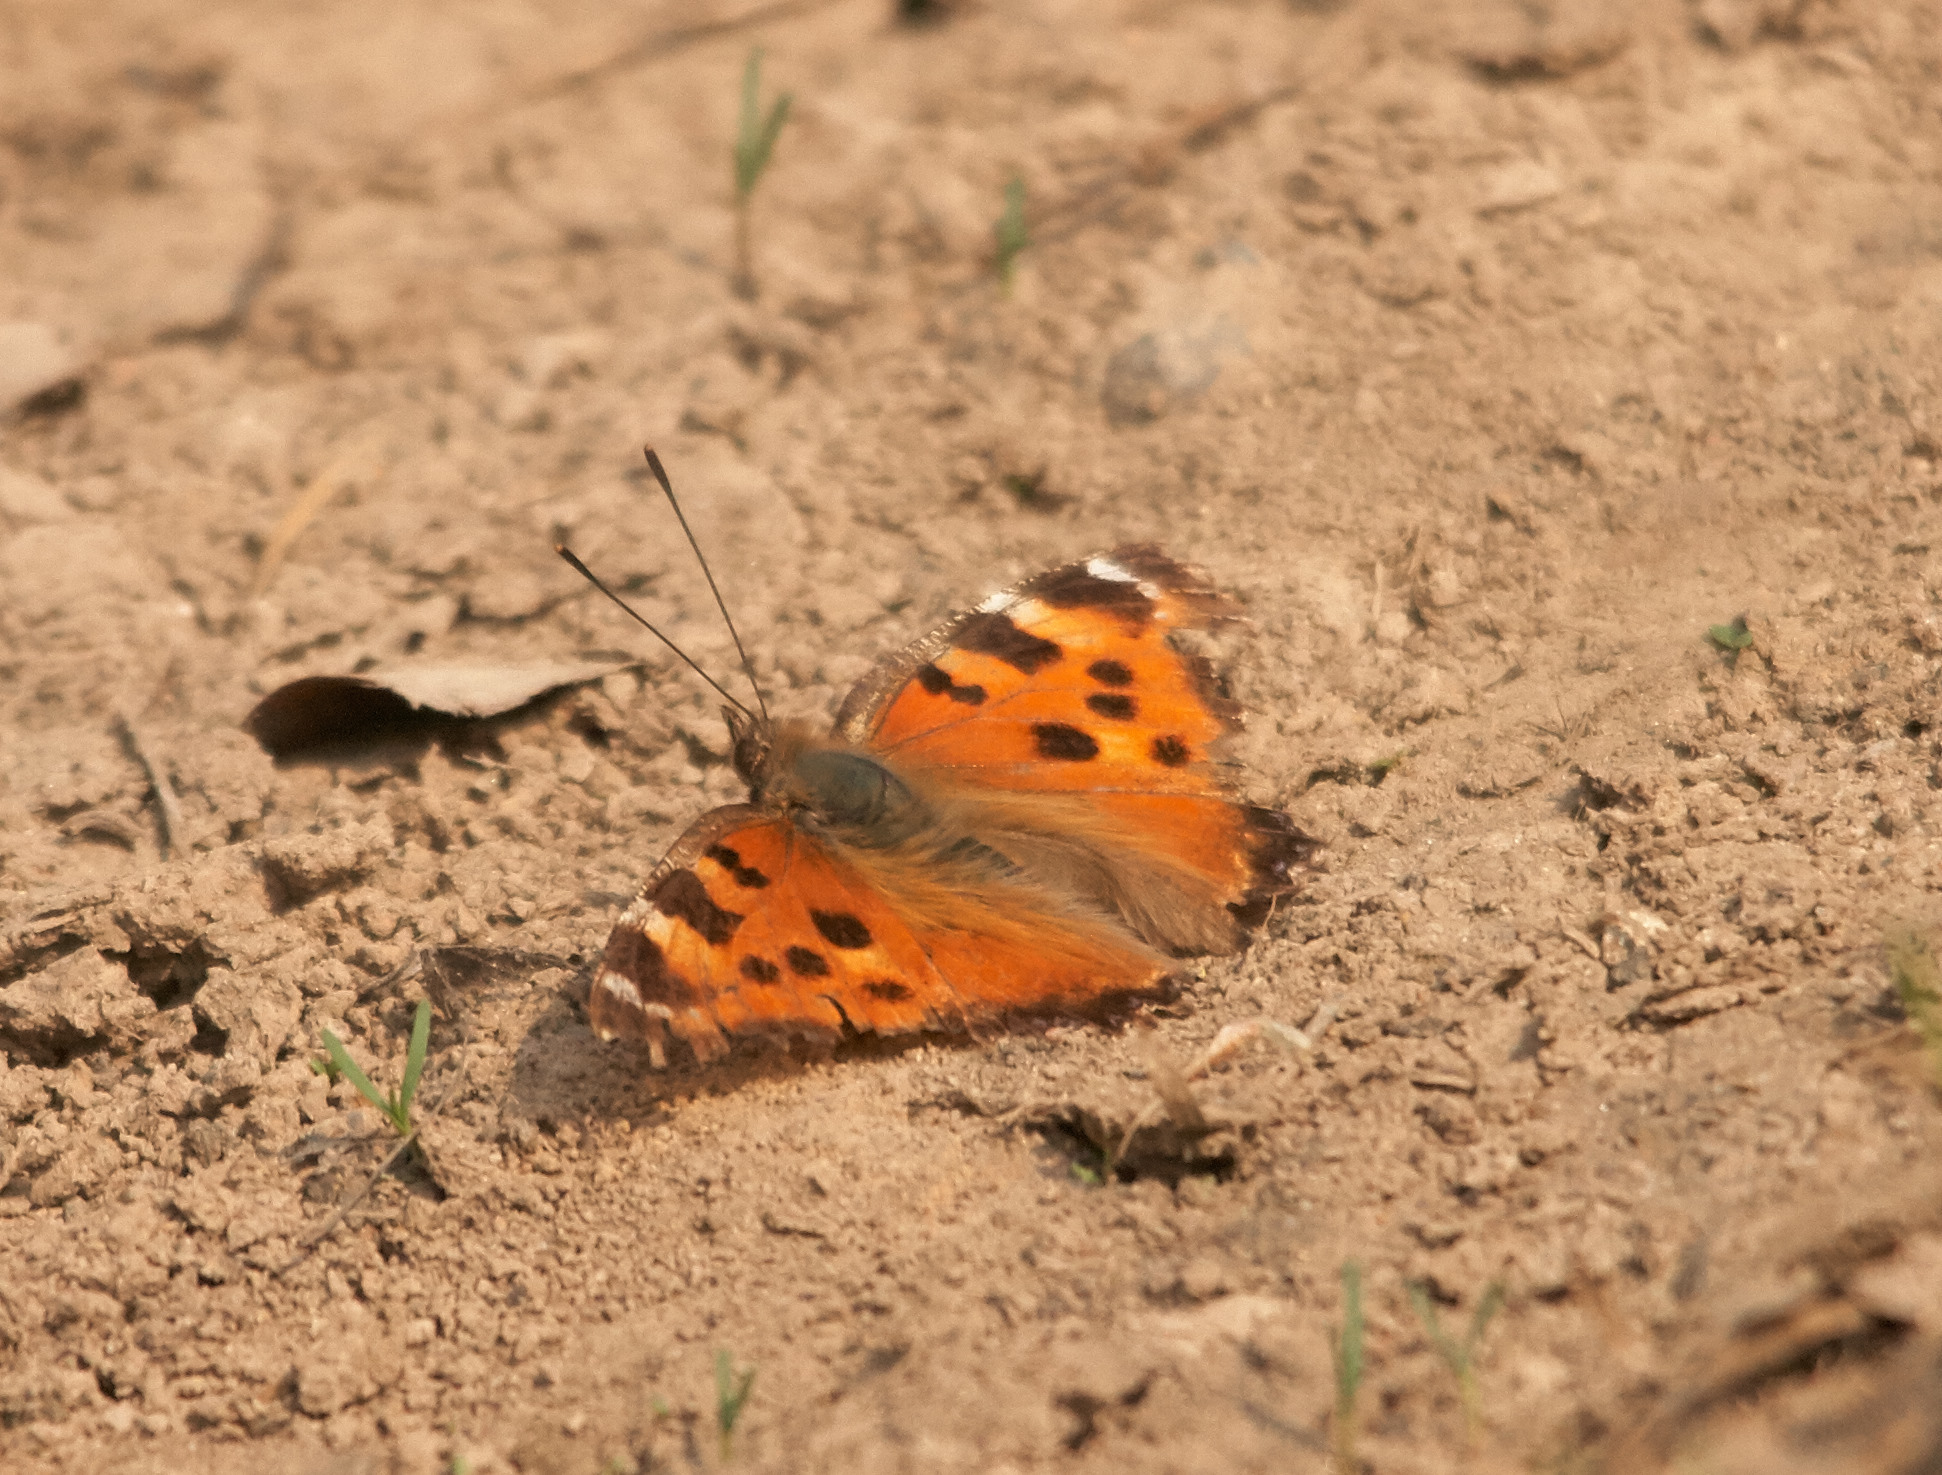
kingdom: Animalia
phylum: Arthropoda
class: Insecta
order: Lepidoptera
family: Nymphalidae
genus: Nymphalis
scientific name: Nymphalis xanthomelas
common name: Scarce tortoiseshell
